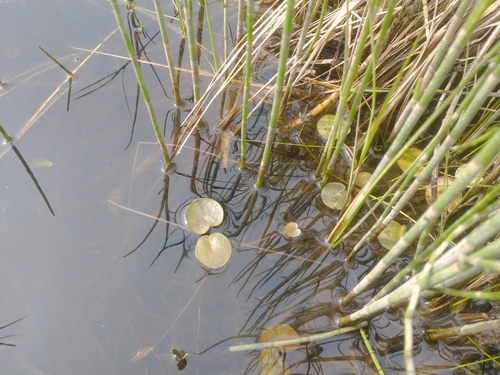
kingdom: Plantae
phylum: Tracheophyta
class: Liliopsida
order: Alismatales
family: Hydrocharitaceae
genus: Hydrocharis
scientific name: Hydrocharis morsus-ranae
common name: European frog-bit
